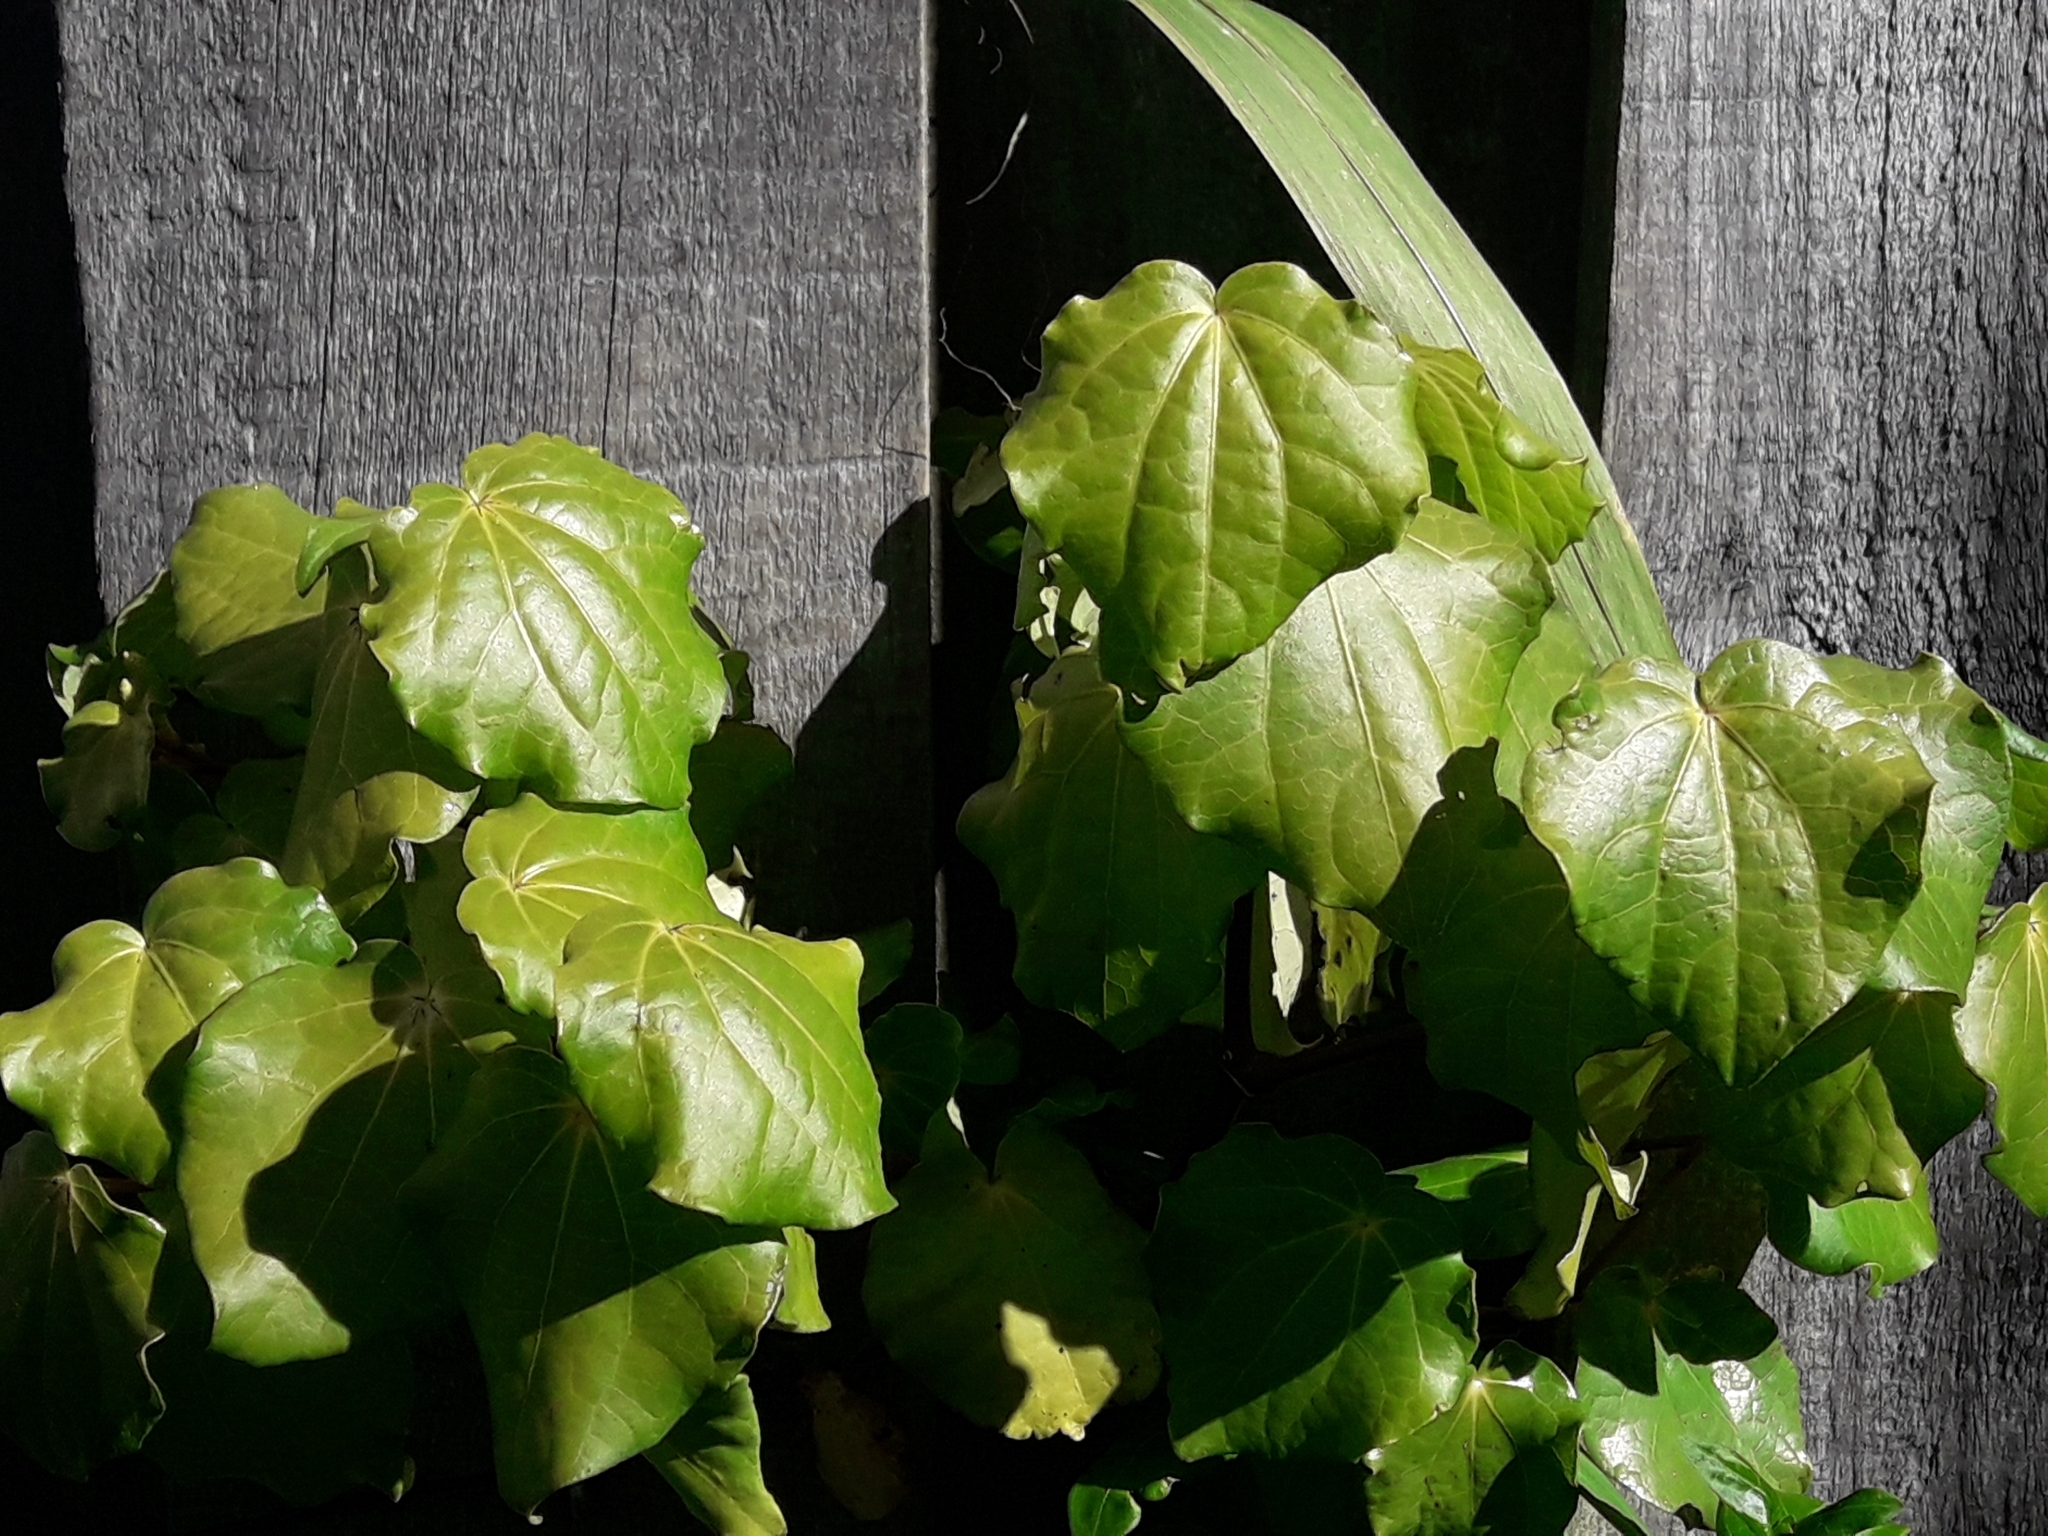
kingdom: Plantae
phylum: Tracheophyta
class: Magnoliopsida
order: Piperales
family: Piperaceae
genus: Macropiper
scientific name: Macropiper excelsum
